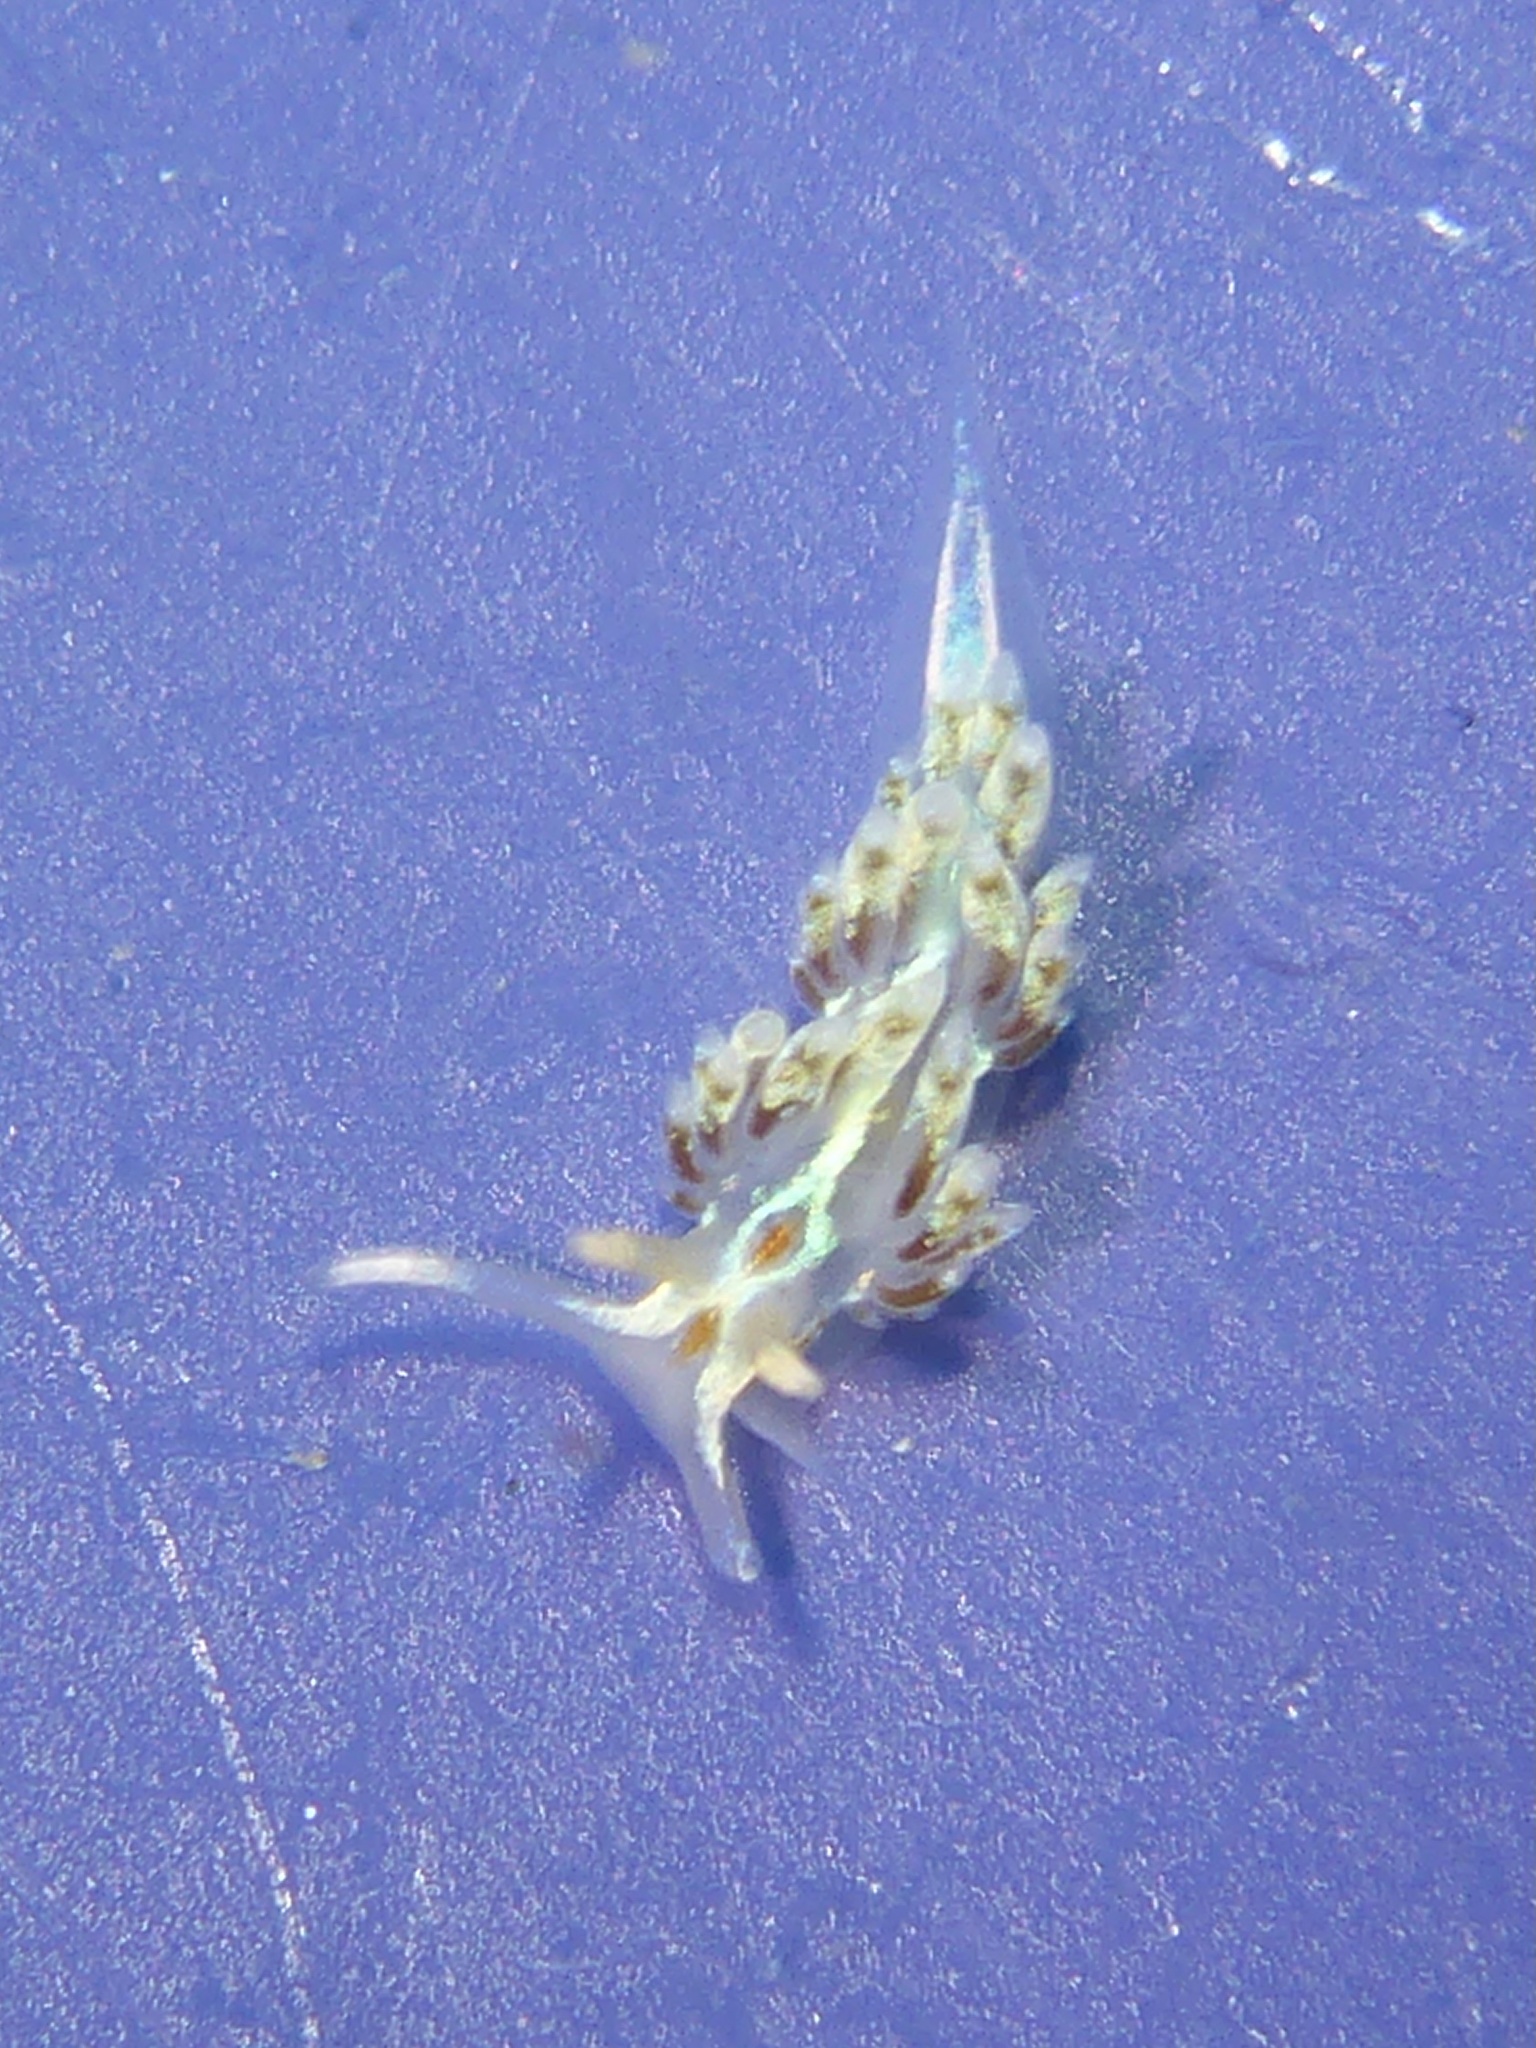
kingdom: Animalia
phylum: Mollusca
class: Gastropoda
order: Nudibranchia
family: Myrrhinidae
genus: Hermissenda
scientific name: Hermissenda opalescens
